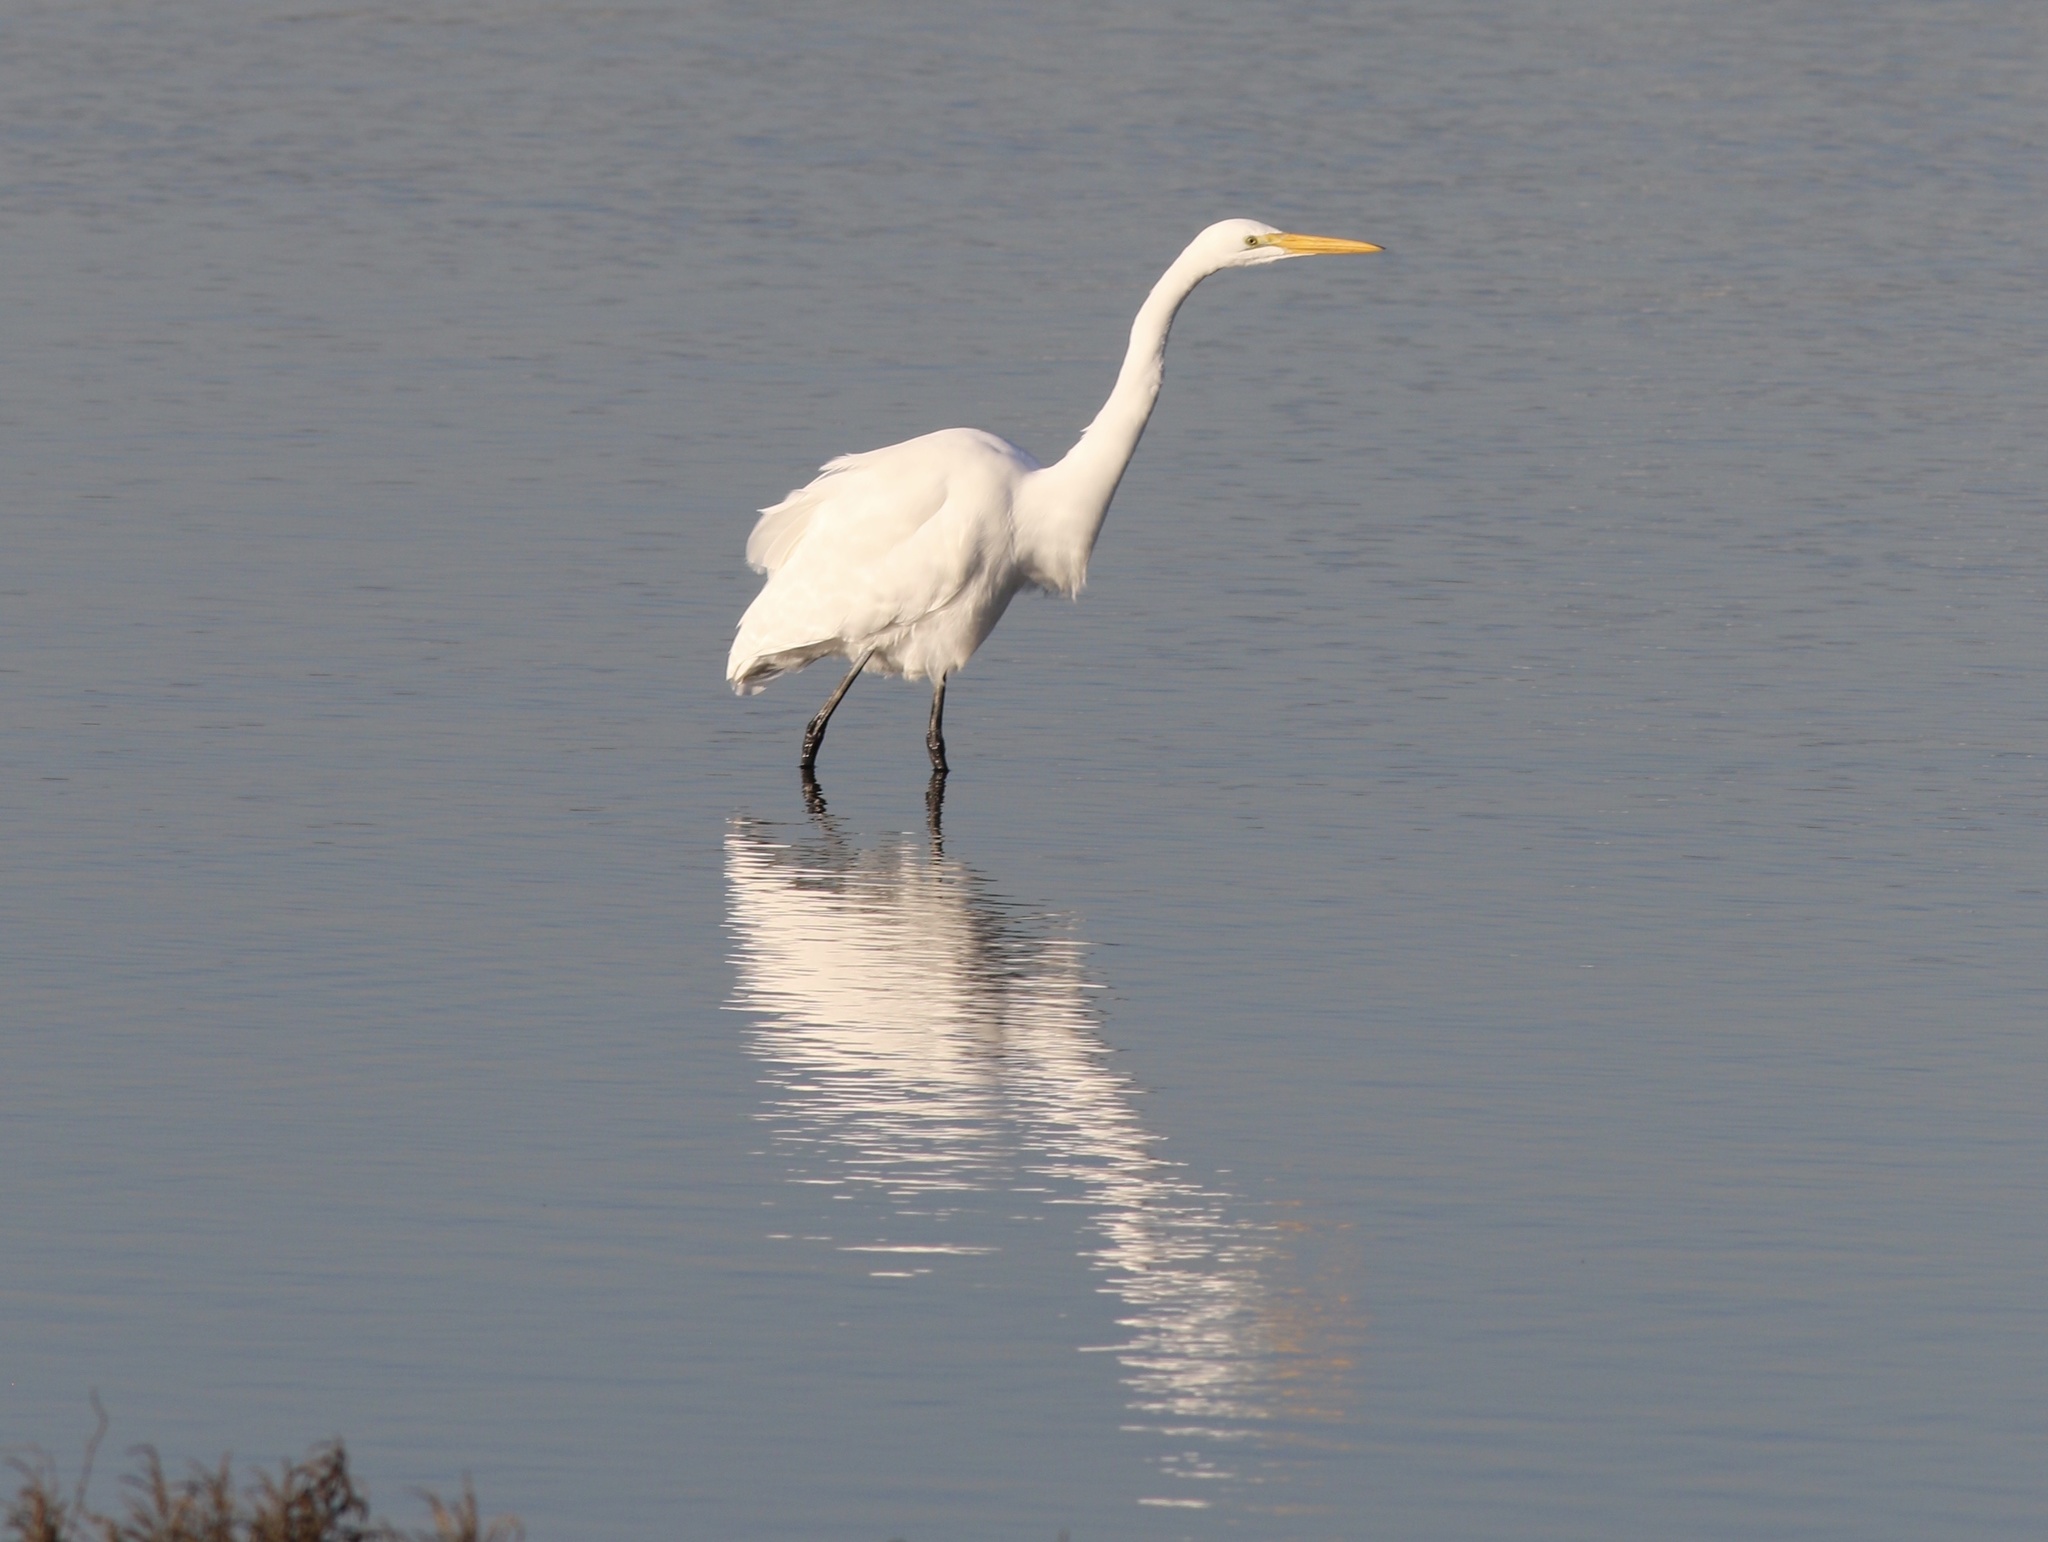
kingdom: Animalia
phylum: Chordata
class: Aves
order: Pelecaniformes
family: Ardeidae
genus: Ardea
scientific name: Ardea alba
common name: Great egret
